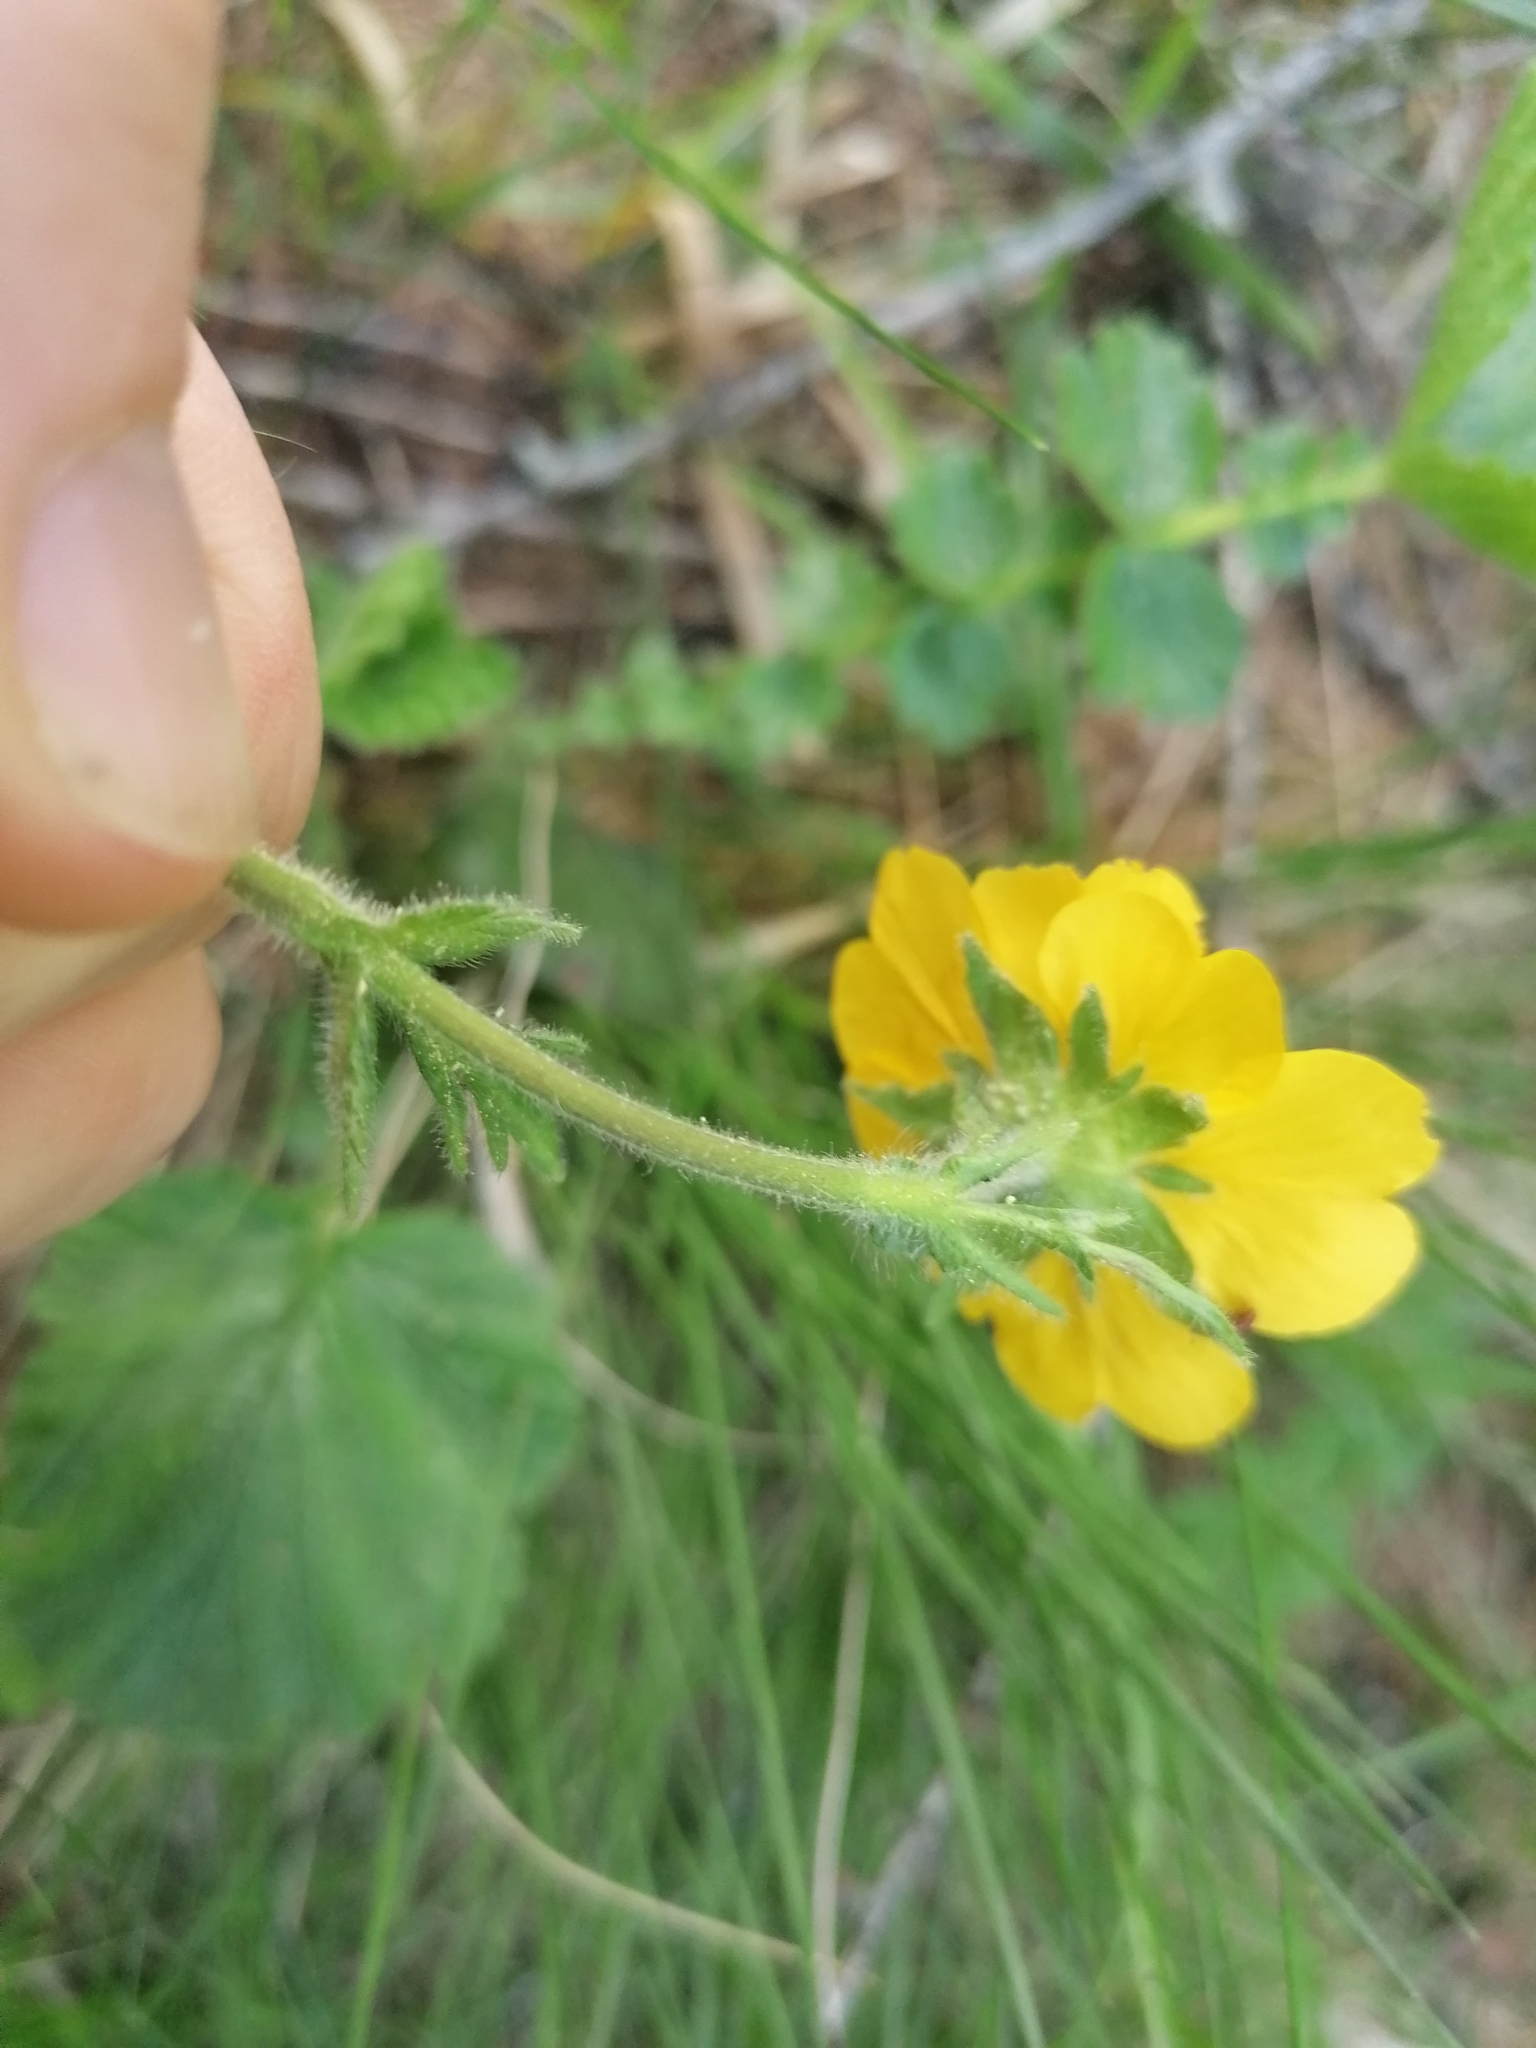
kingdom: Plantae
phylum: Tracheophyta
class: Magnoliopsida
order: Rosales
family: Rosaceae
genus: Geum
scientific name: Geum montanum
